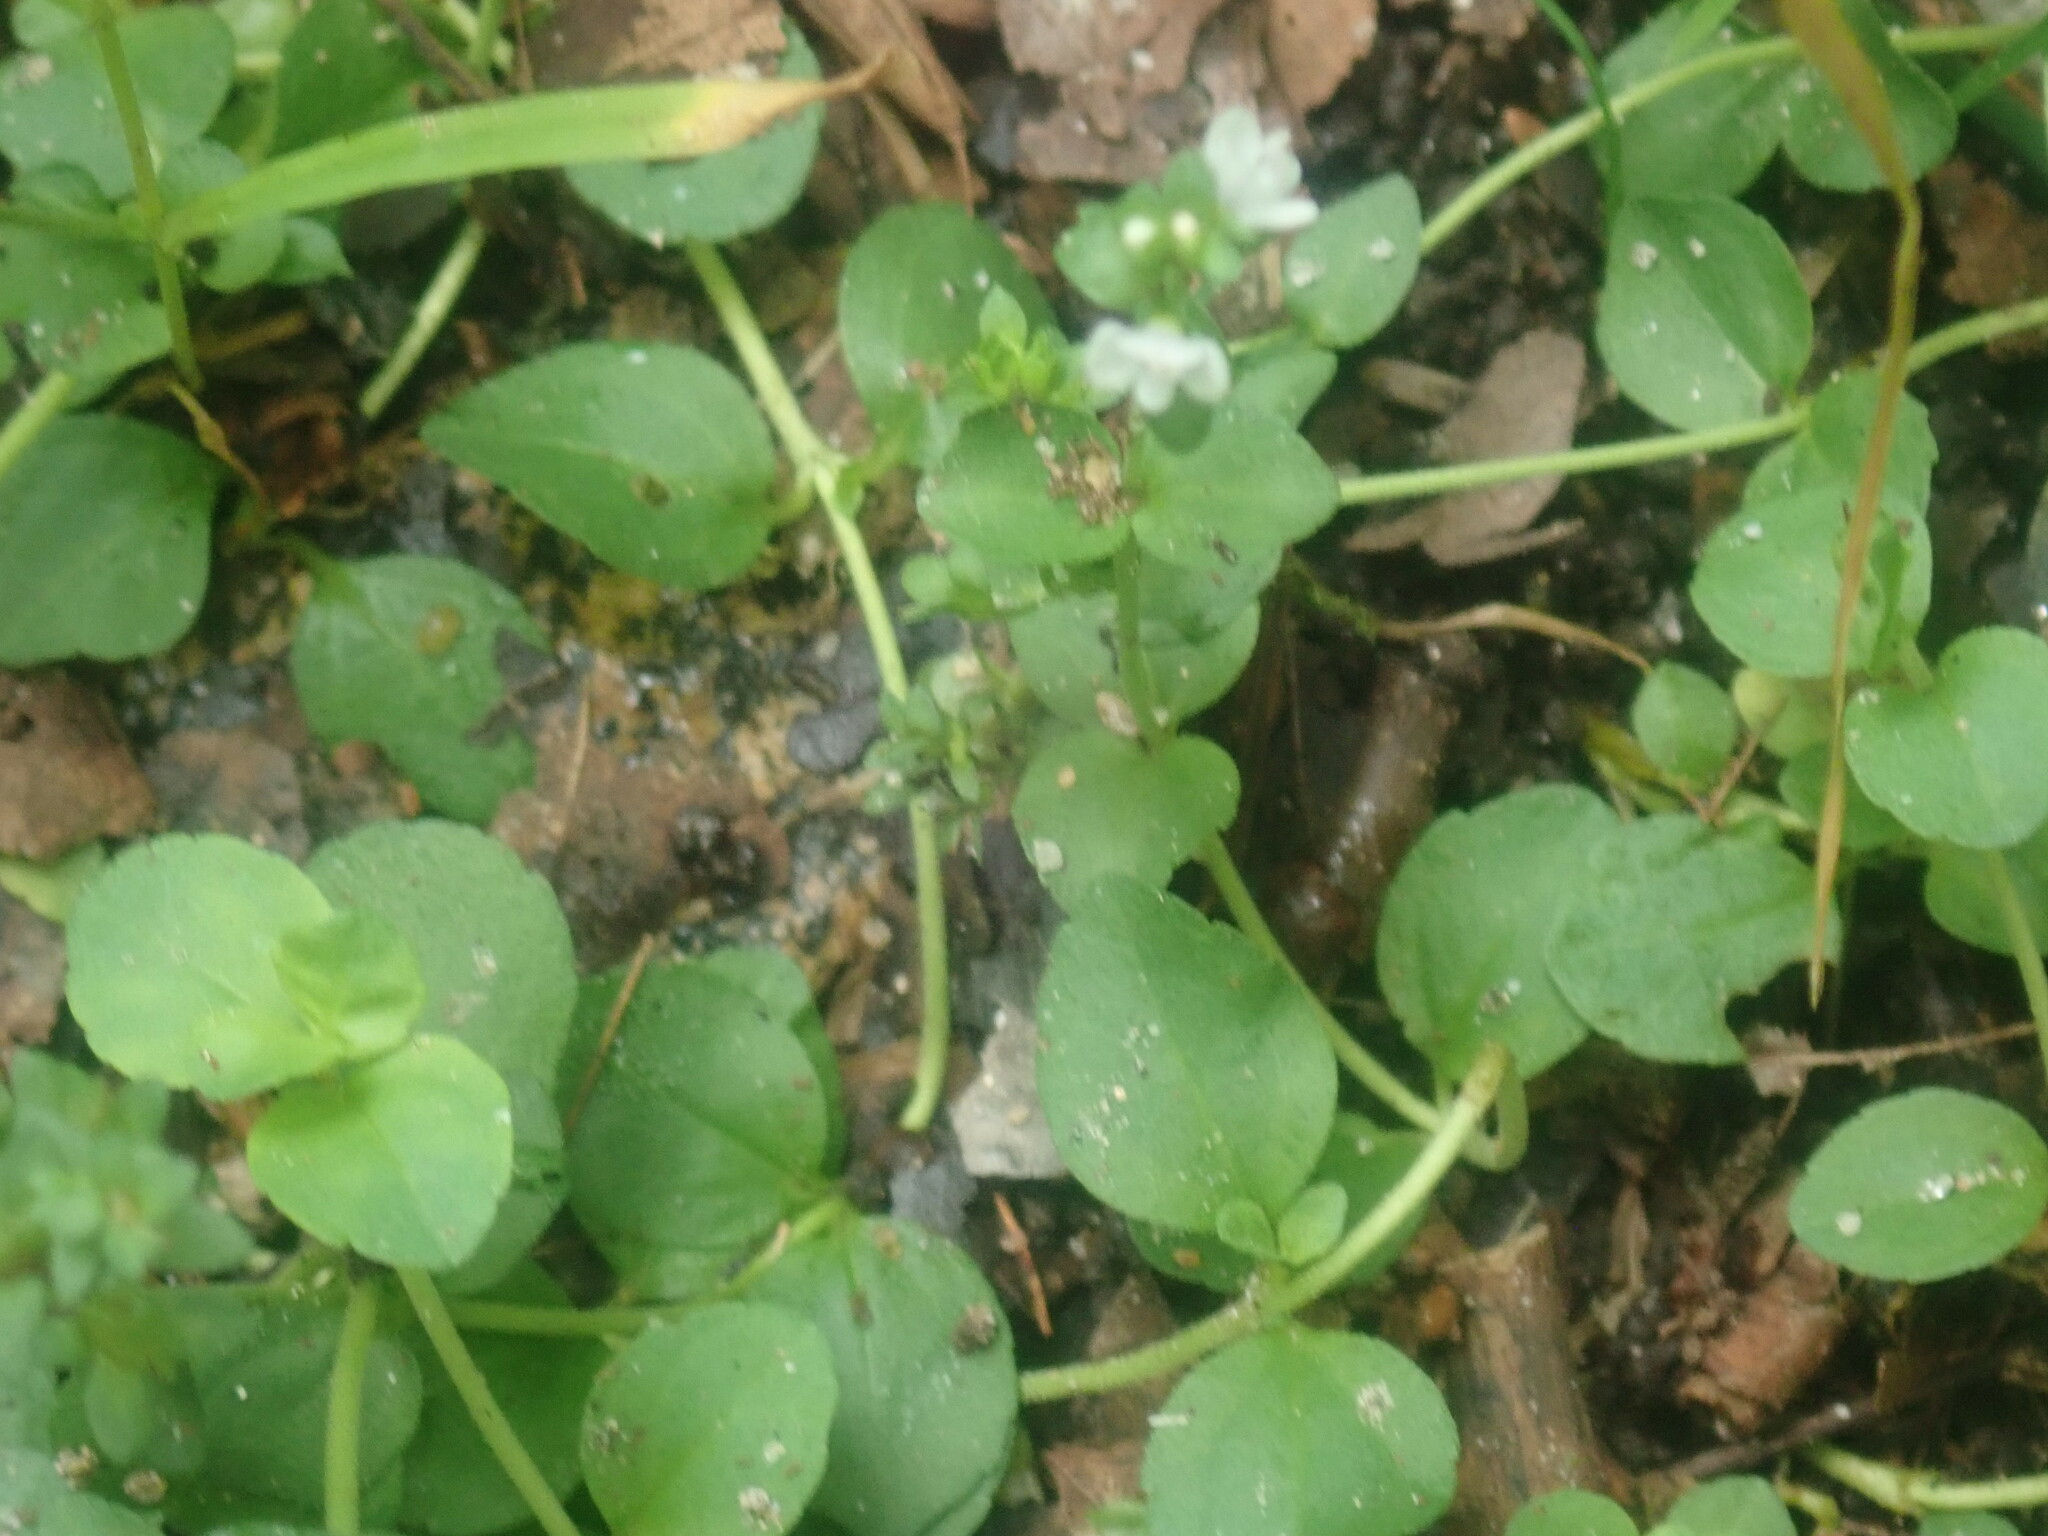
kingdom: Plantae
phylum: Tracheophyta
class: Magnoliopsida
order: Lamiales
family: Plantaginaceae
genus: Veronica
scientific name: Veronica serpyllifolia
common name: Thyme-leaved speedwell
